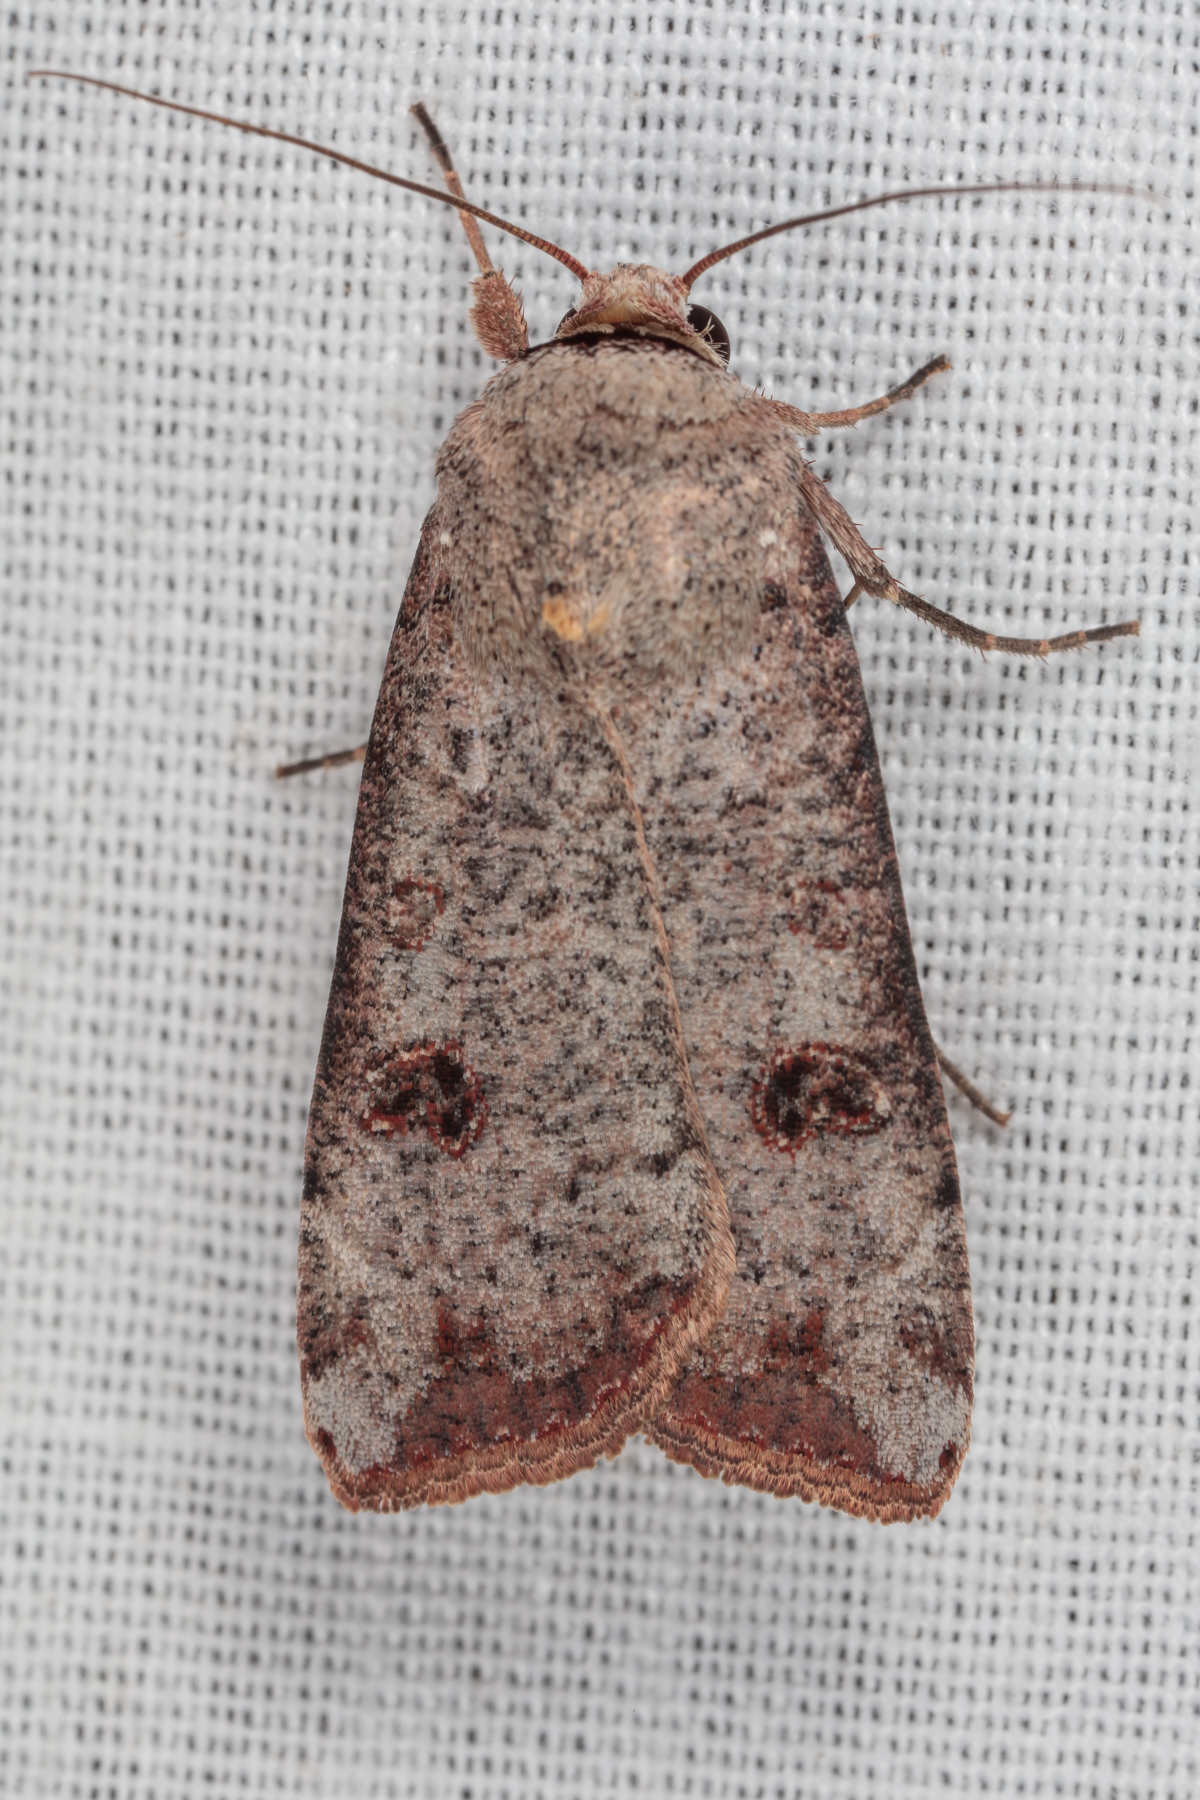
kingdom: Animalia
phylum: Arthropoda
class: Insecta
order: Lepidoptera
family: Noctuidae
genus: Anicla
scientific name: Anicla infecta
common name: Green cutworm
